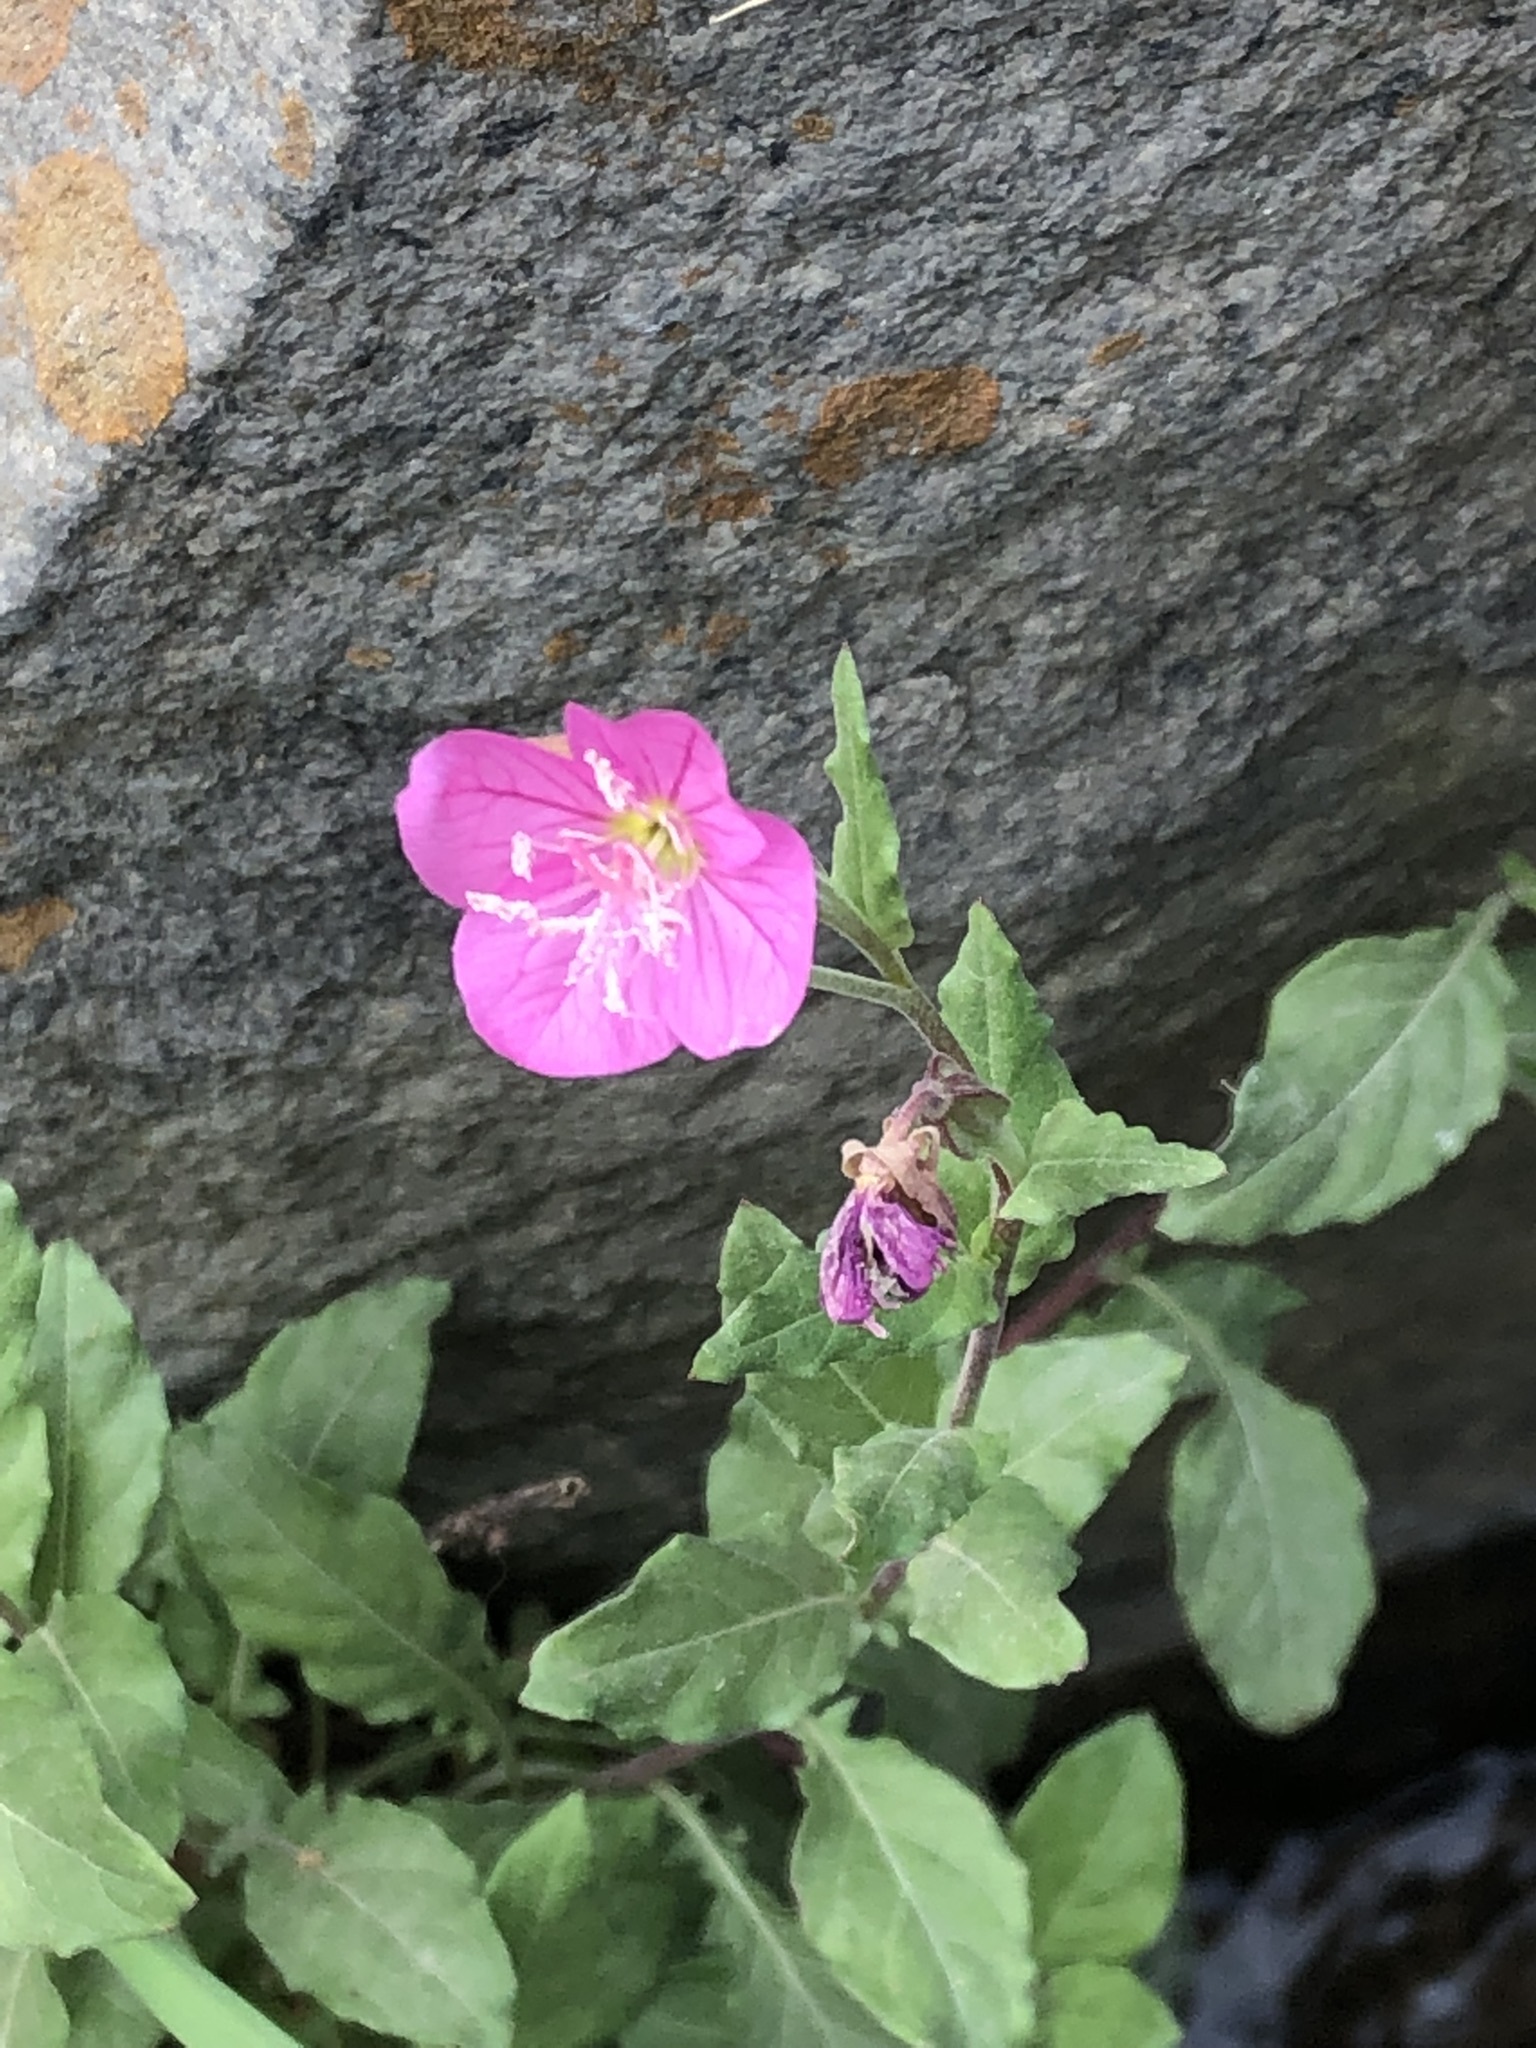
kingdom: Plantae
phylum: Tracheophyta
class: Magnoliopsida
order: Myrtales
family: Onagraceae
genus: Oenothera
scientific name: Oenothera rosea
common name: Rosy evening-primrose
